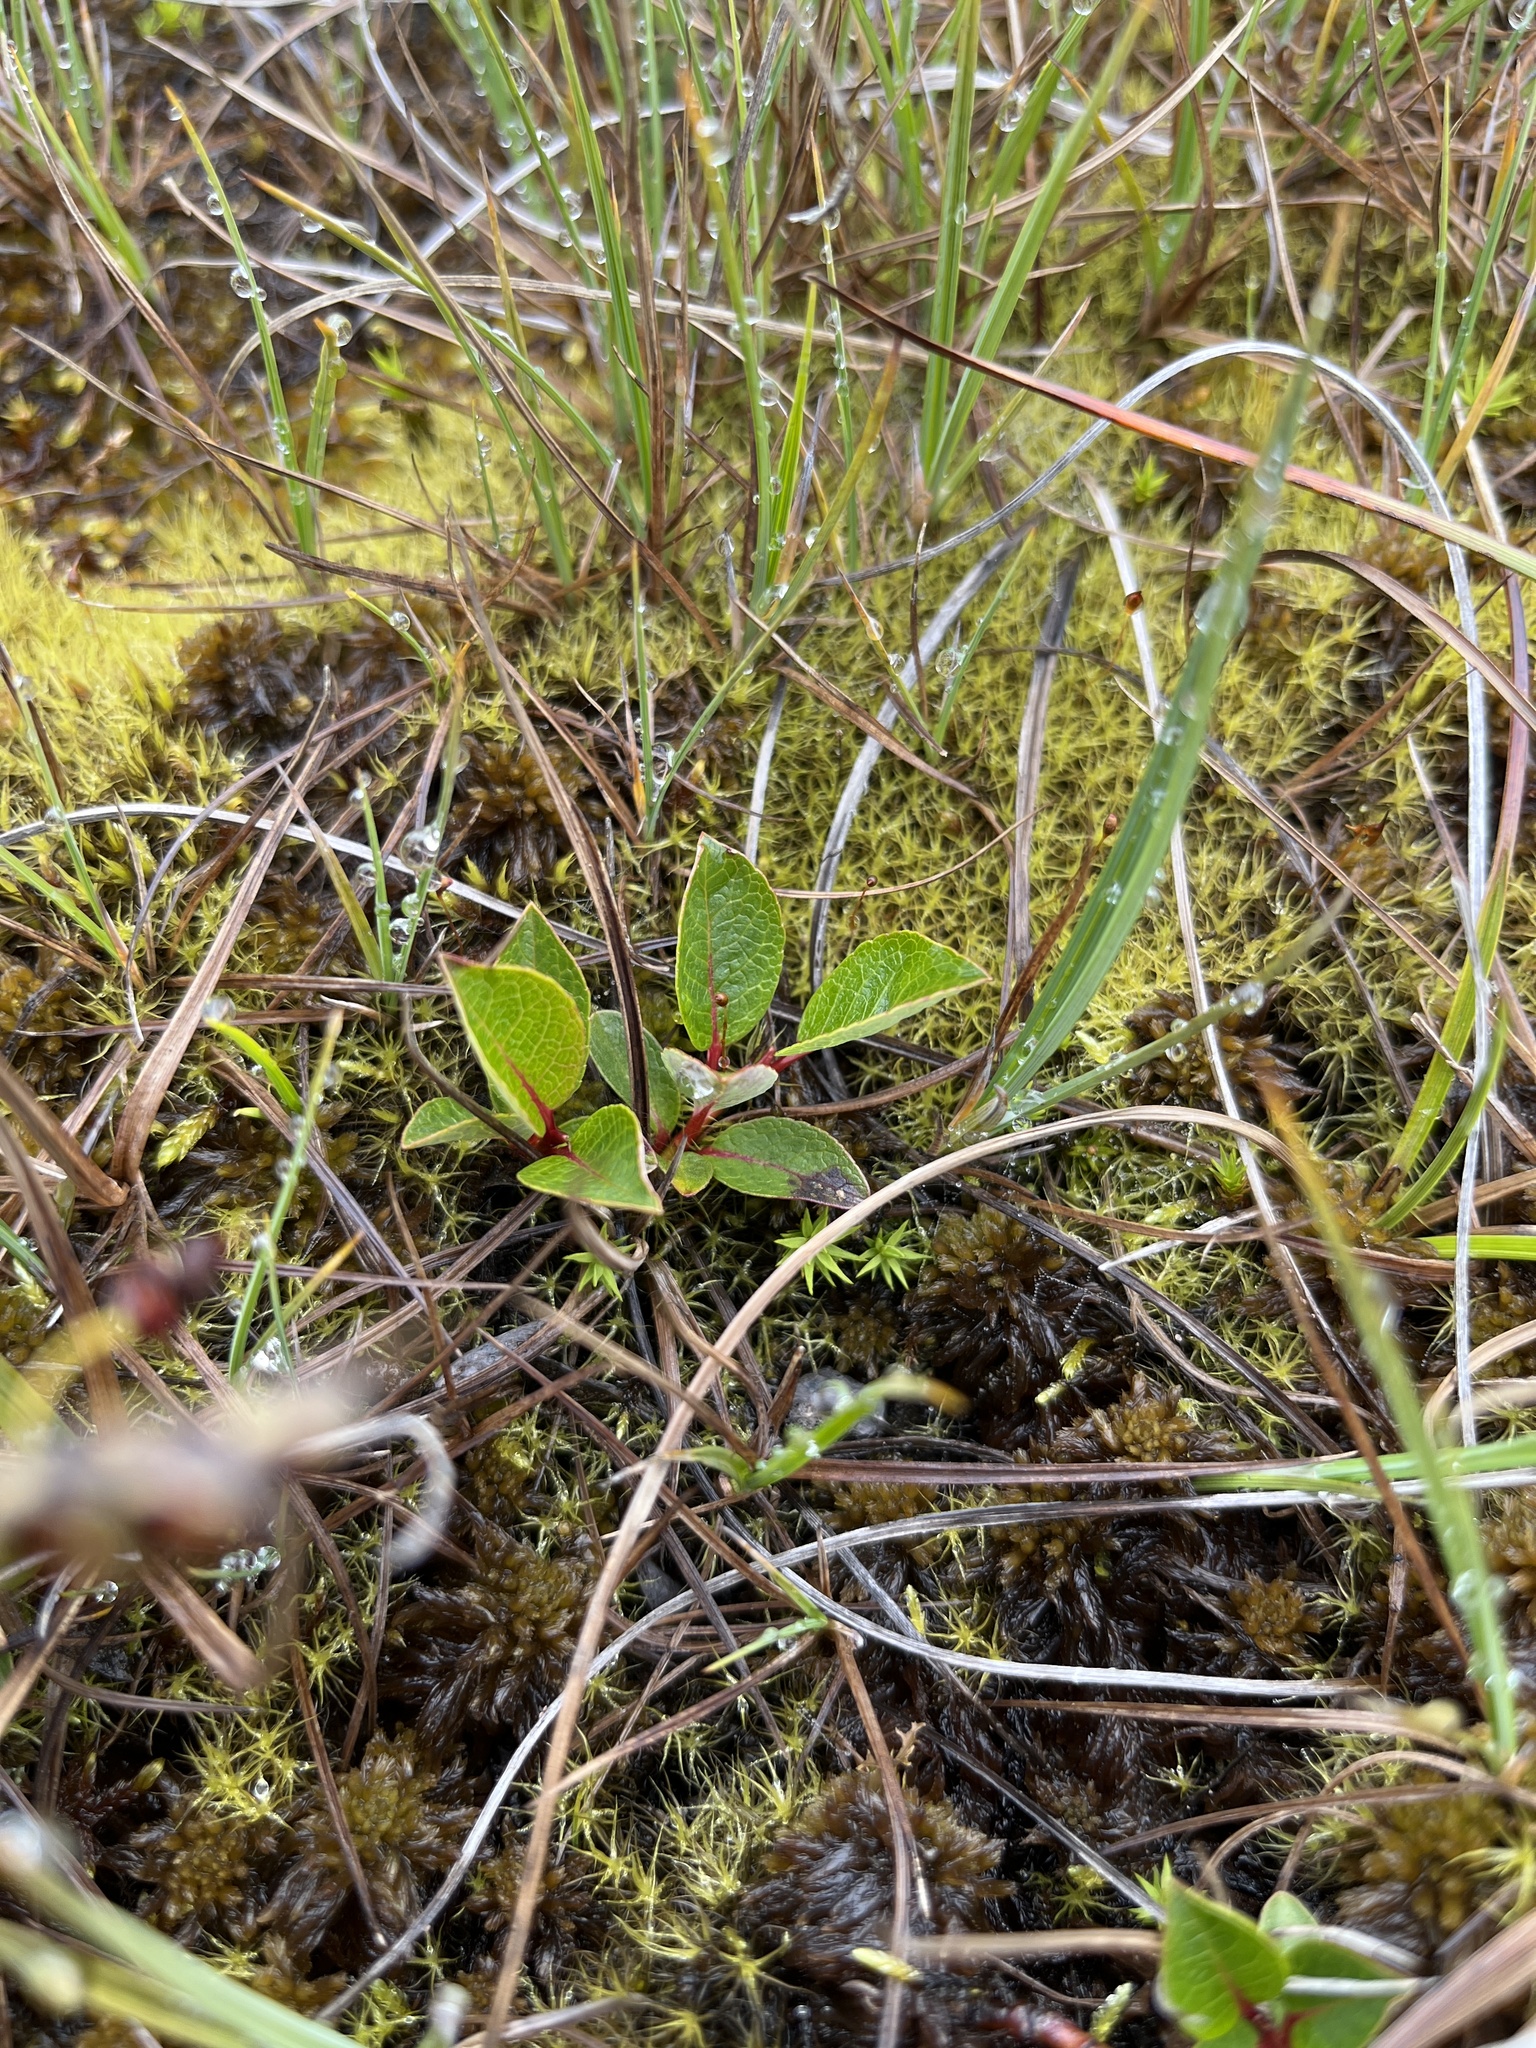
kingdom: Plantae
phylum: Tracheophyta
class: Magnoliopsida
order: Malpighiales
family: Salicaceae
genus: Salix
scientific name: Salix arctophila
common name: Greenland willow
